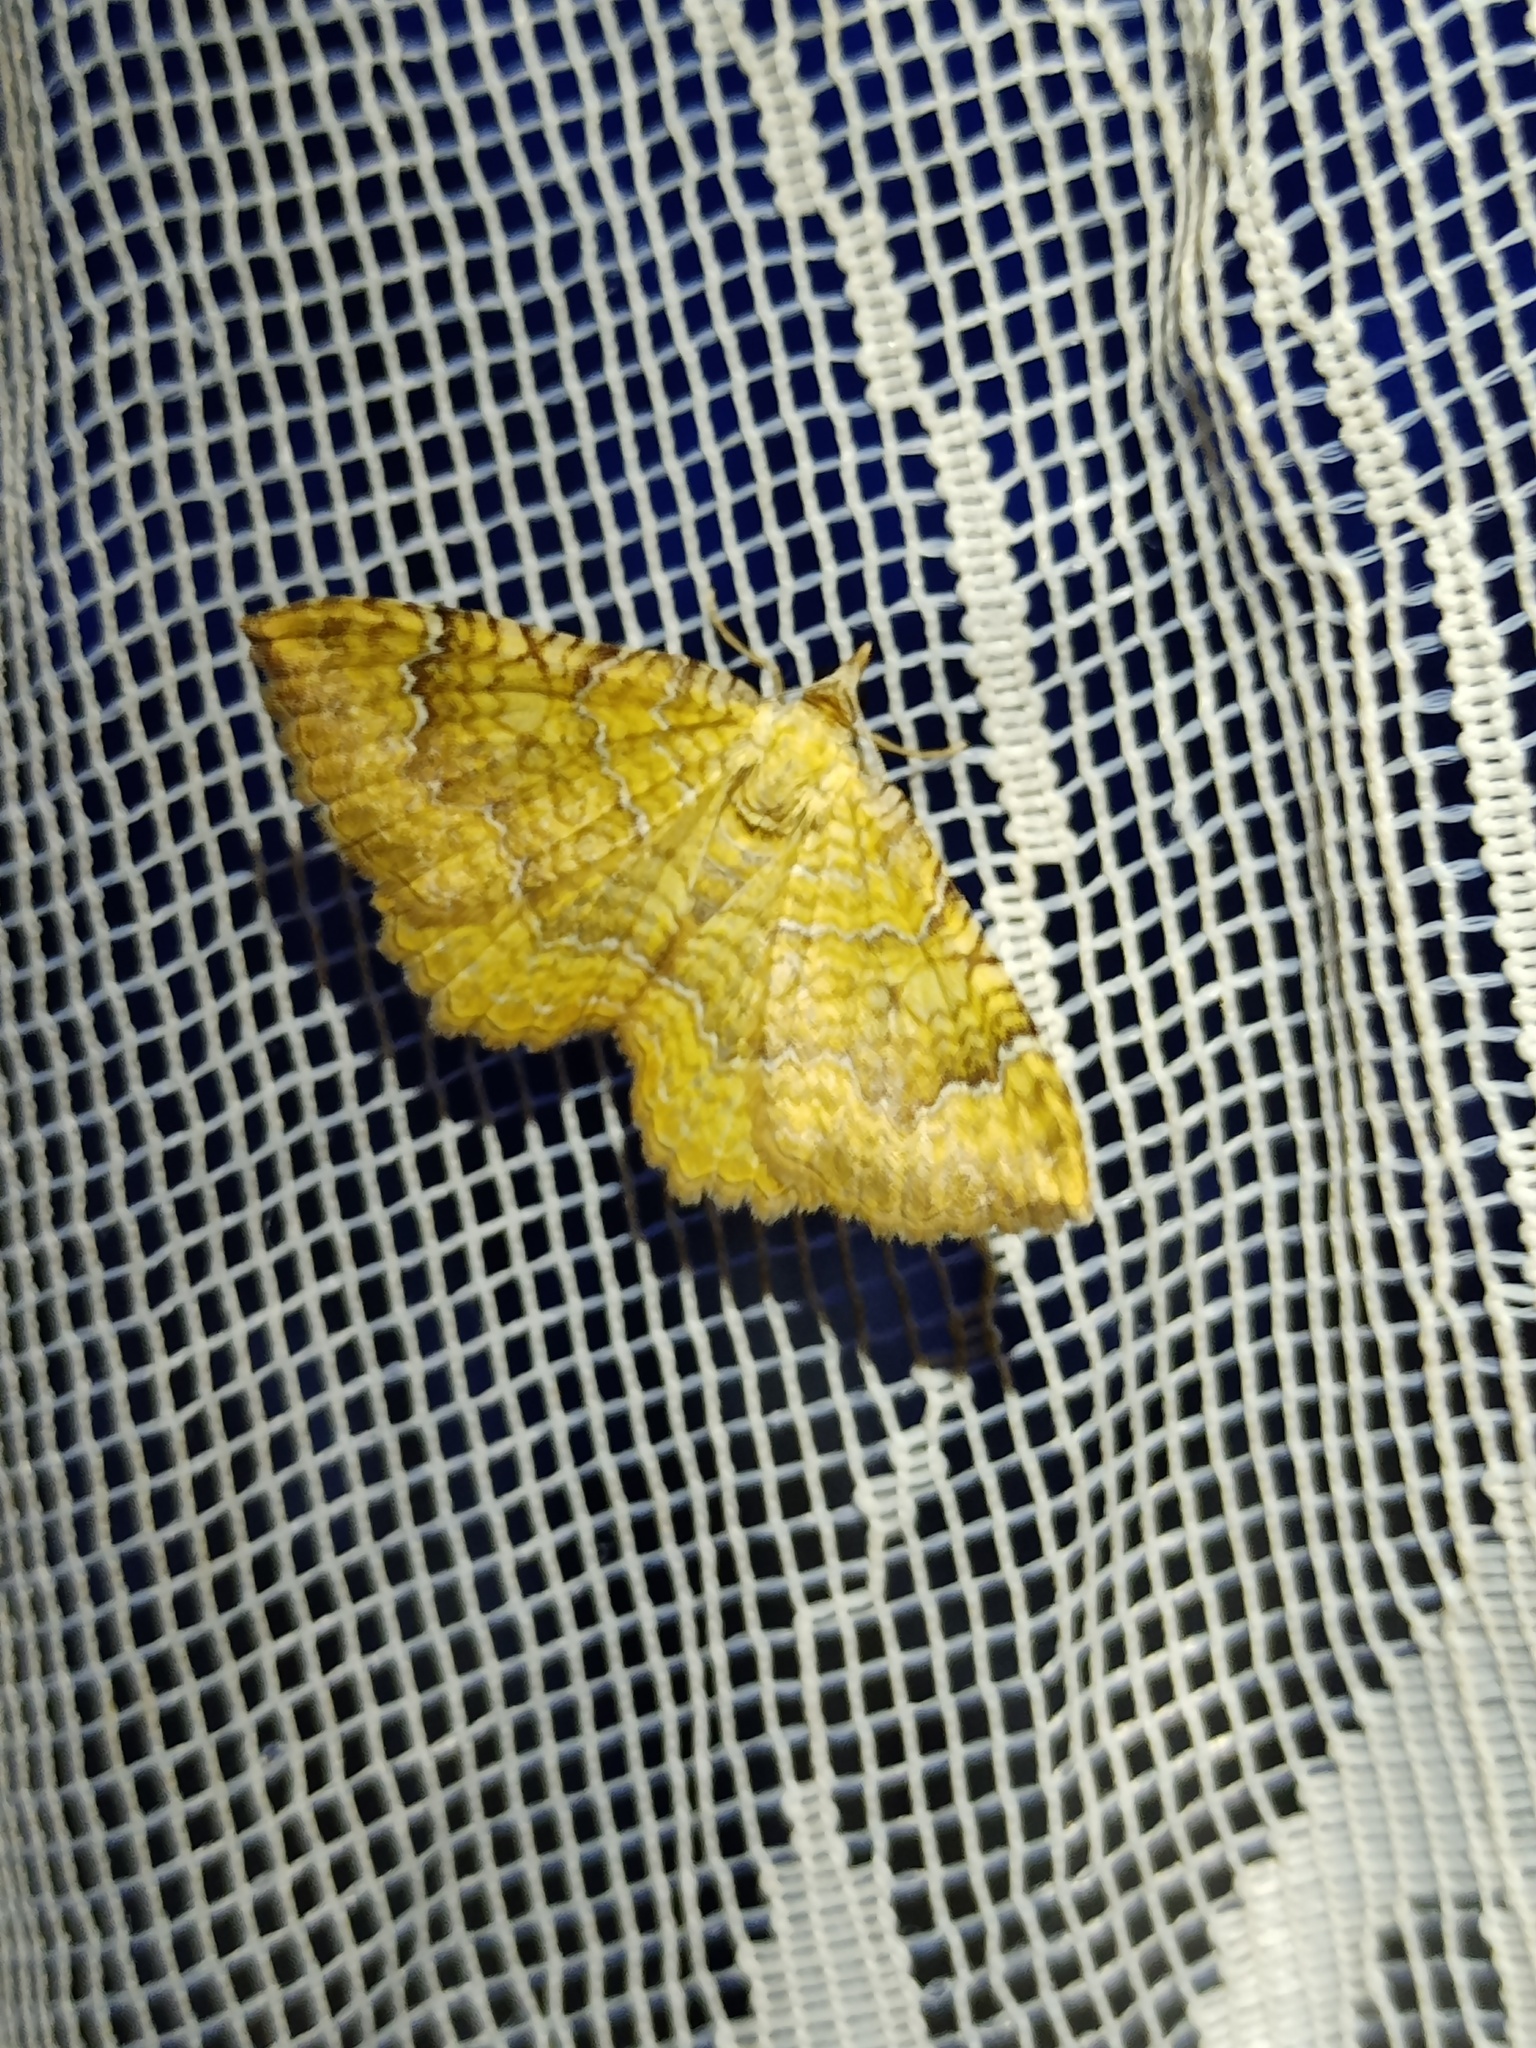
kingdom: Animalia
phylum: Arthropoda
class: Insecta
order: Lepidoptera
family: Geometridae
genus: Camptogramma
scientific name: Camptogramma bilineata
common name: Yellow shell
